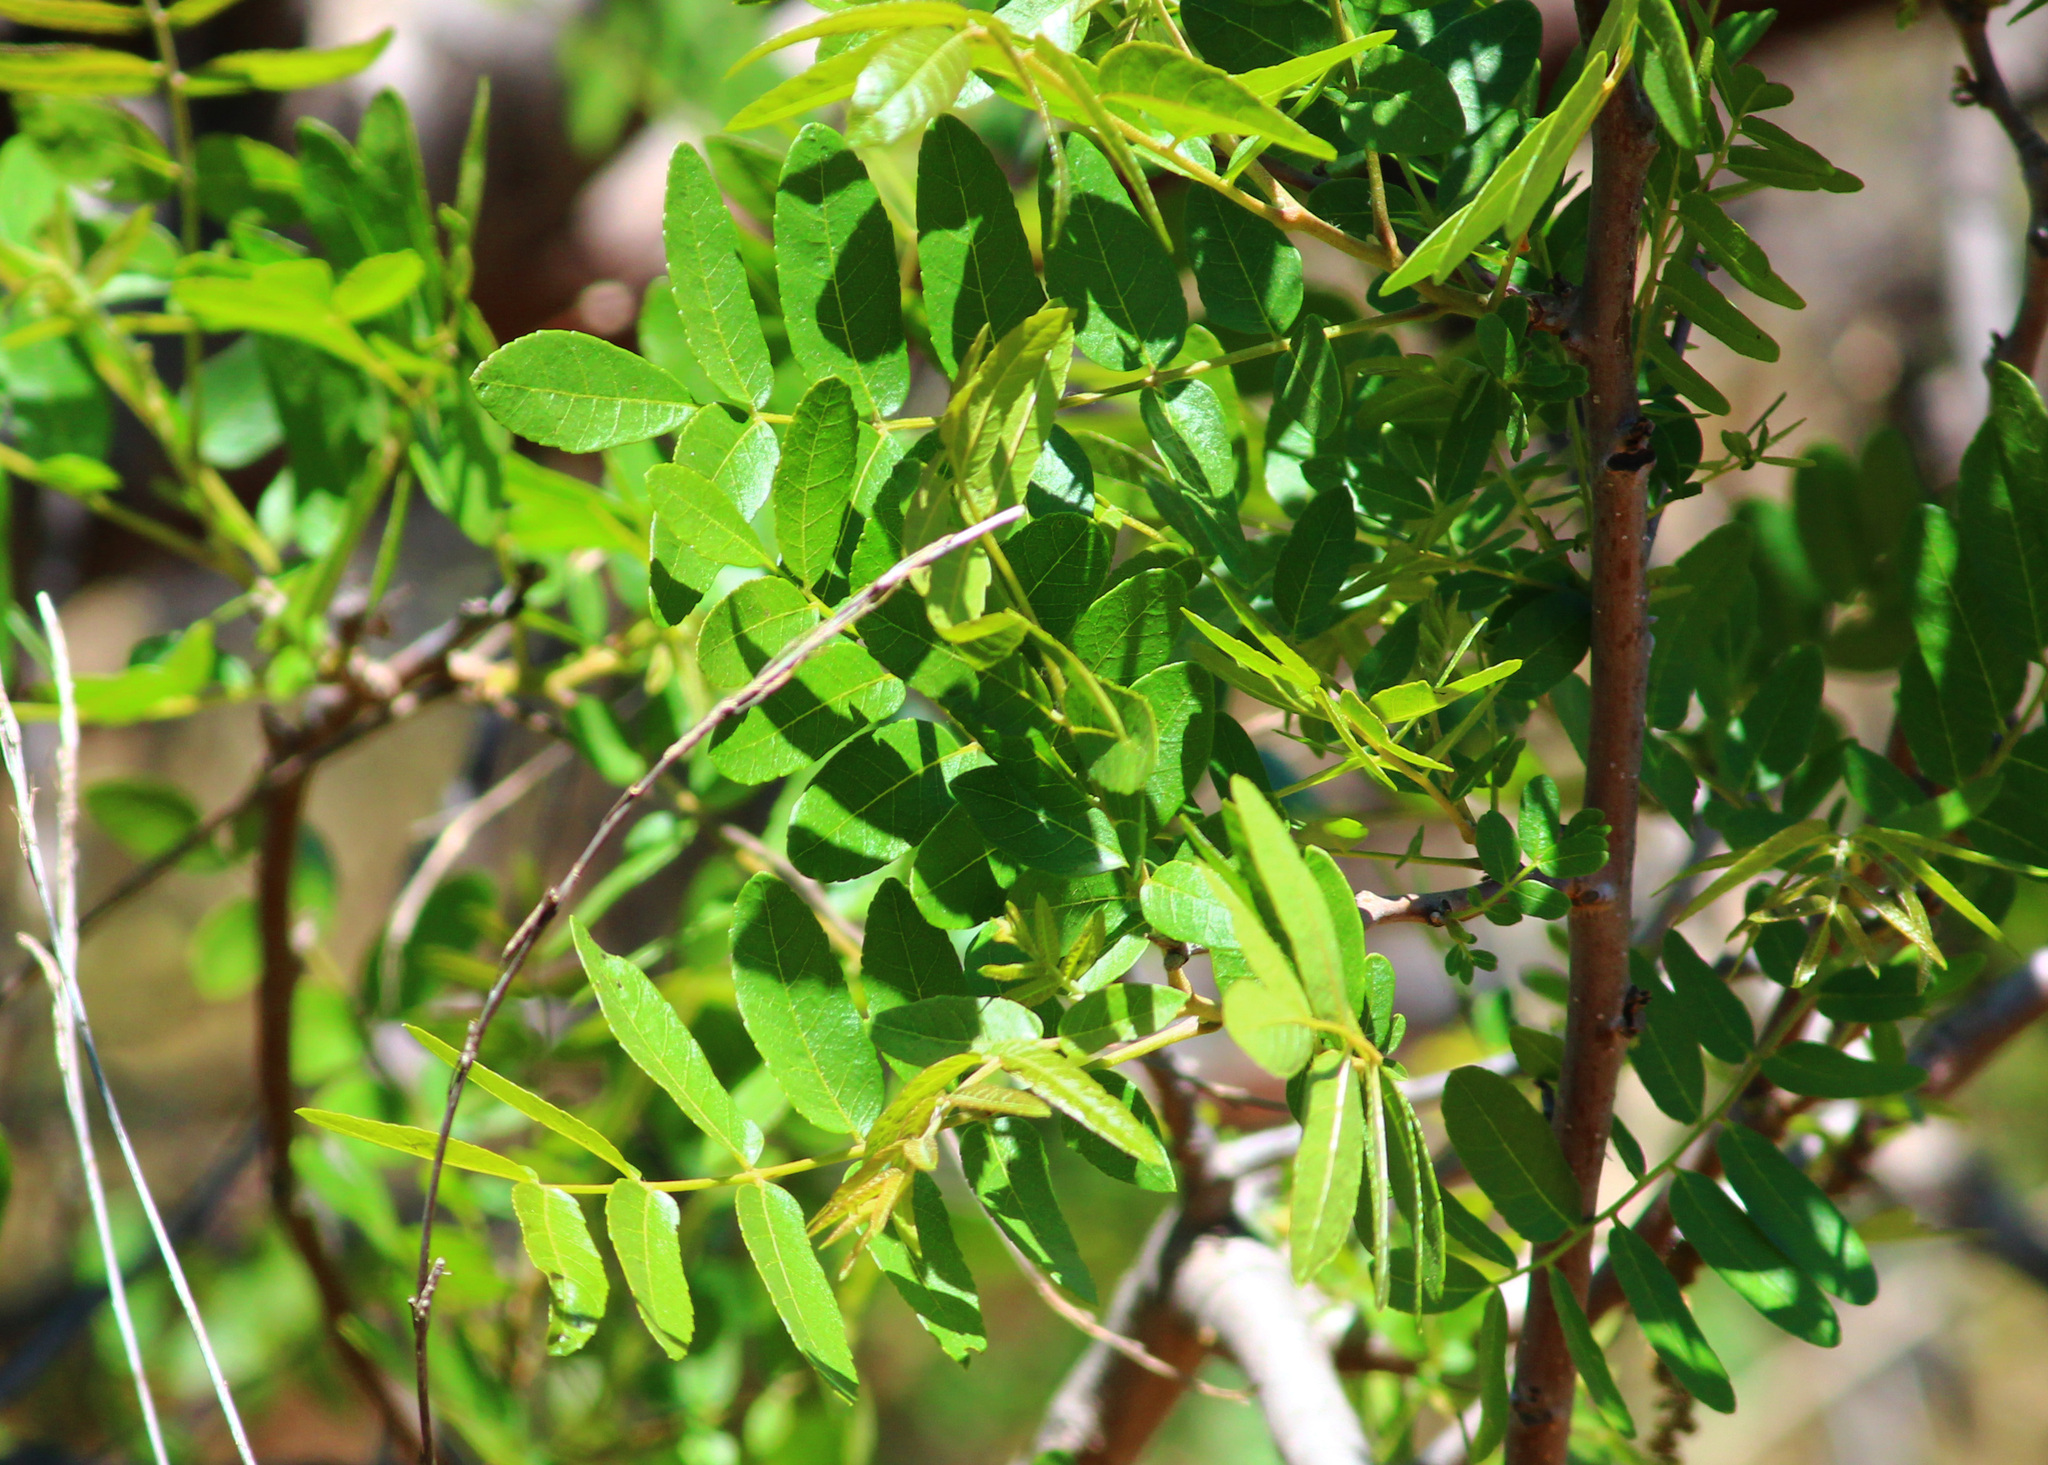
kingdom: Plantae
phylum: Tracheophyta
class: Magnoliopsida
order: Fagales
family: Juglandaceae
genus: Juglans
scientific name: Juglans californica
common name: Southern california black walnut
